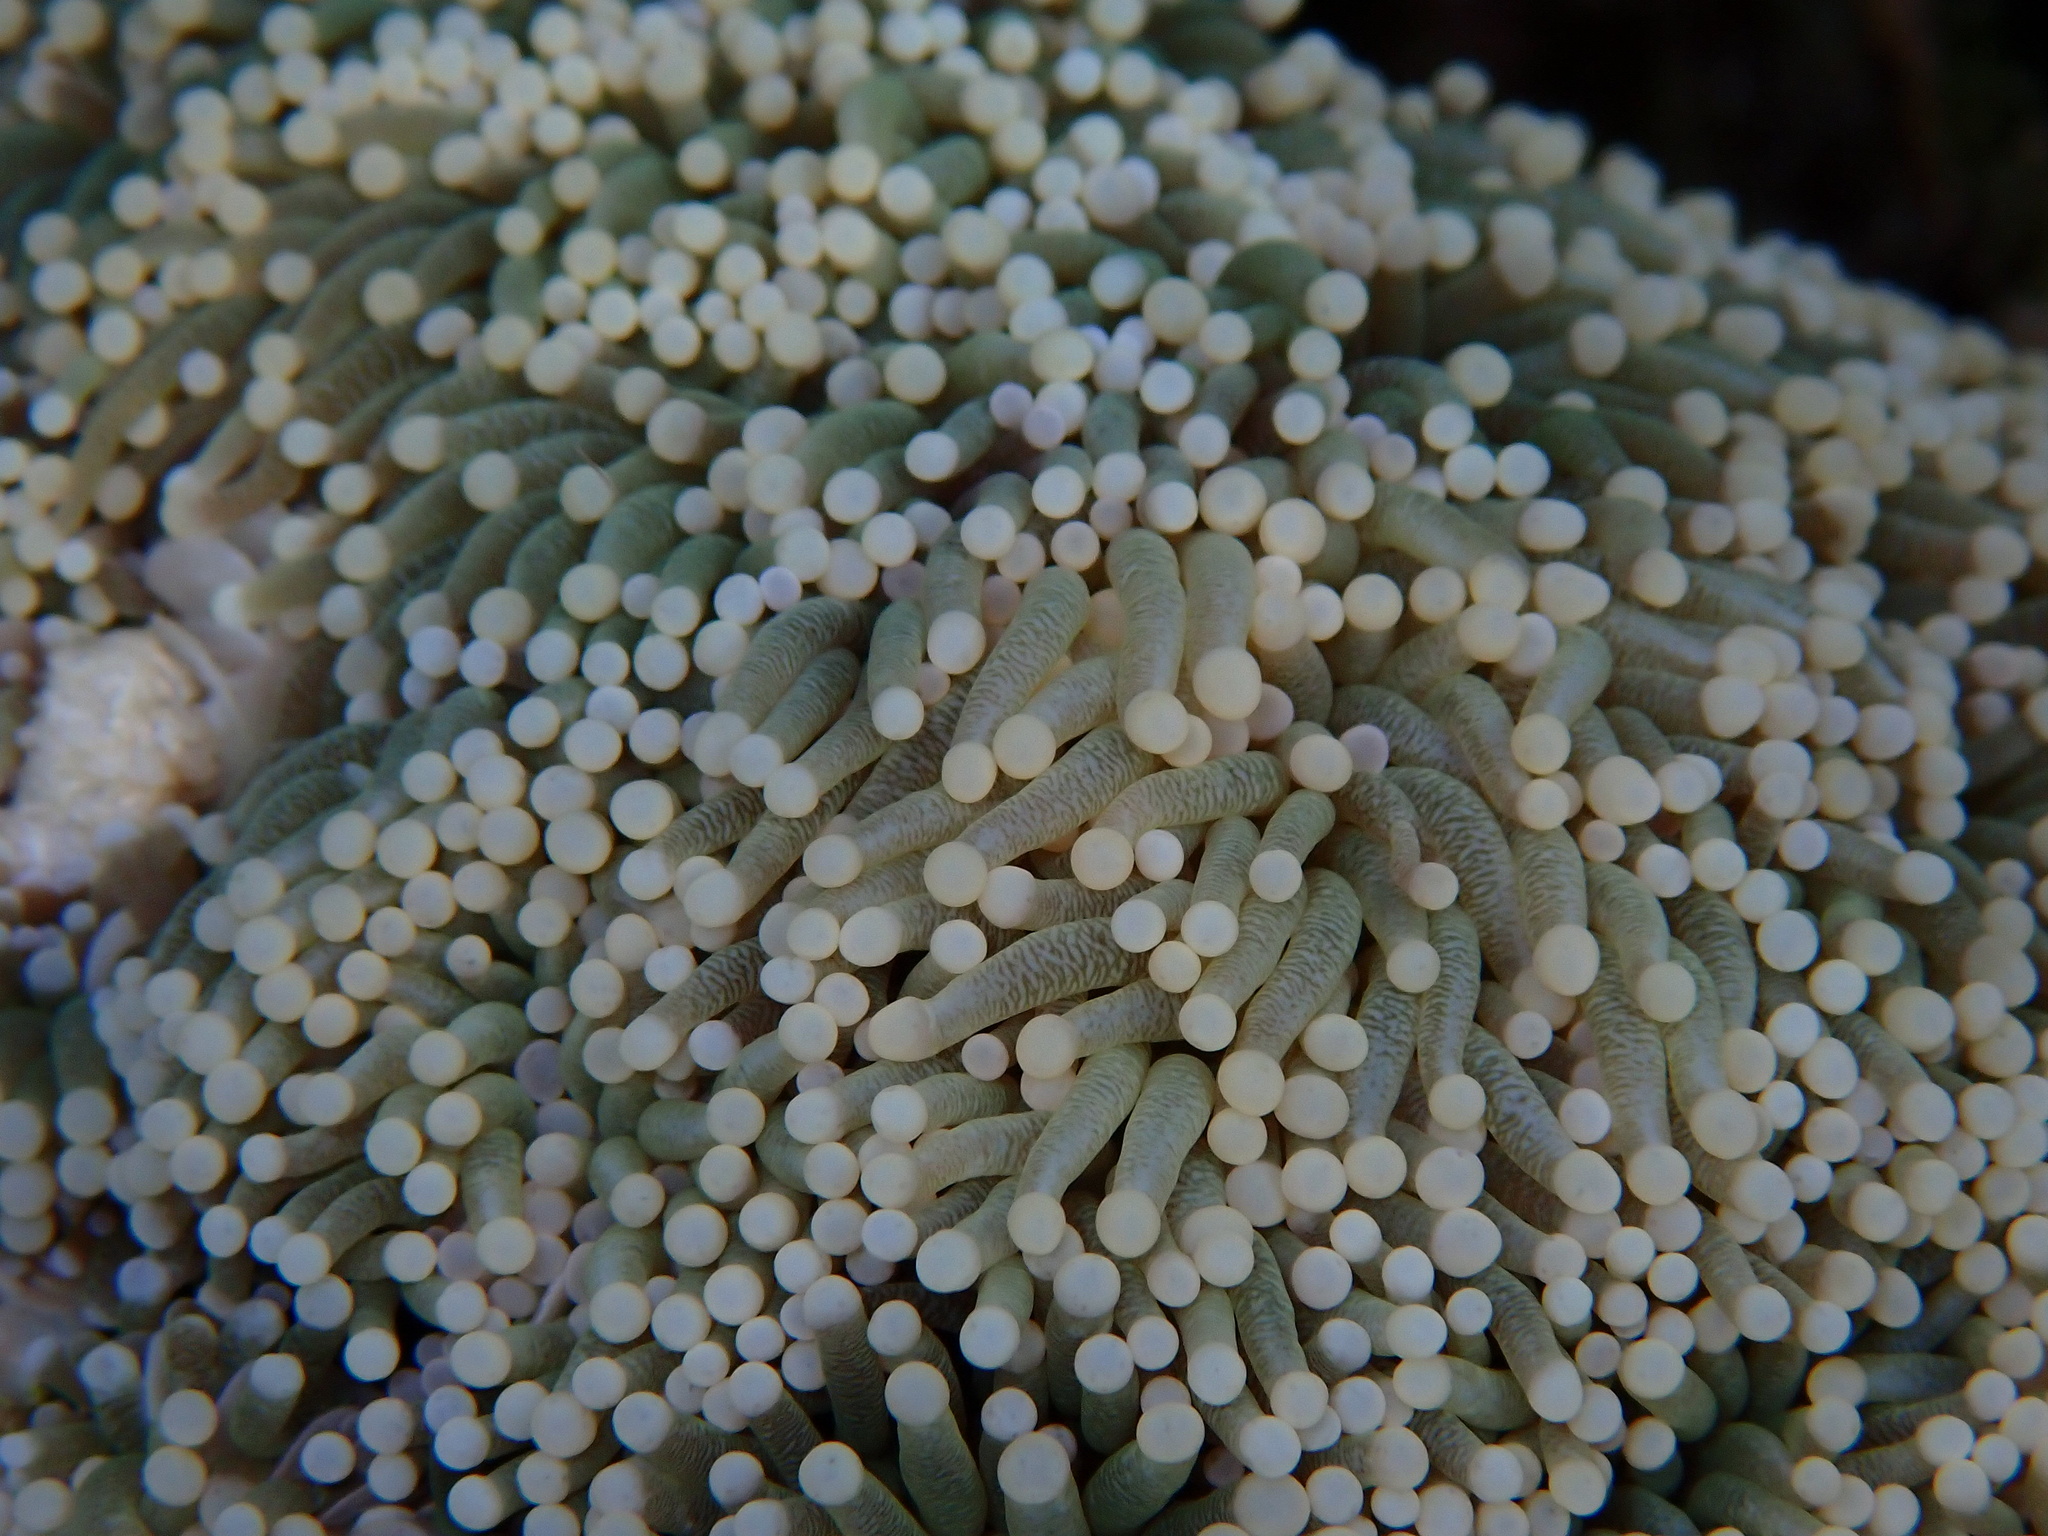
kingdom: Animalia
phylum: Cnidaria
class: Anthozoa
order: Scleractinia
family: Euphylliidae
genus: Euphyllia
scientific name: Euphyllia glabrescens
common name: Joker coral
